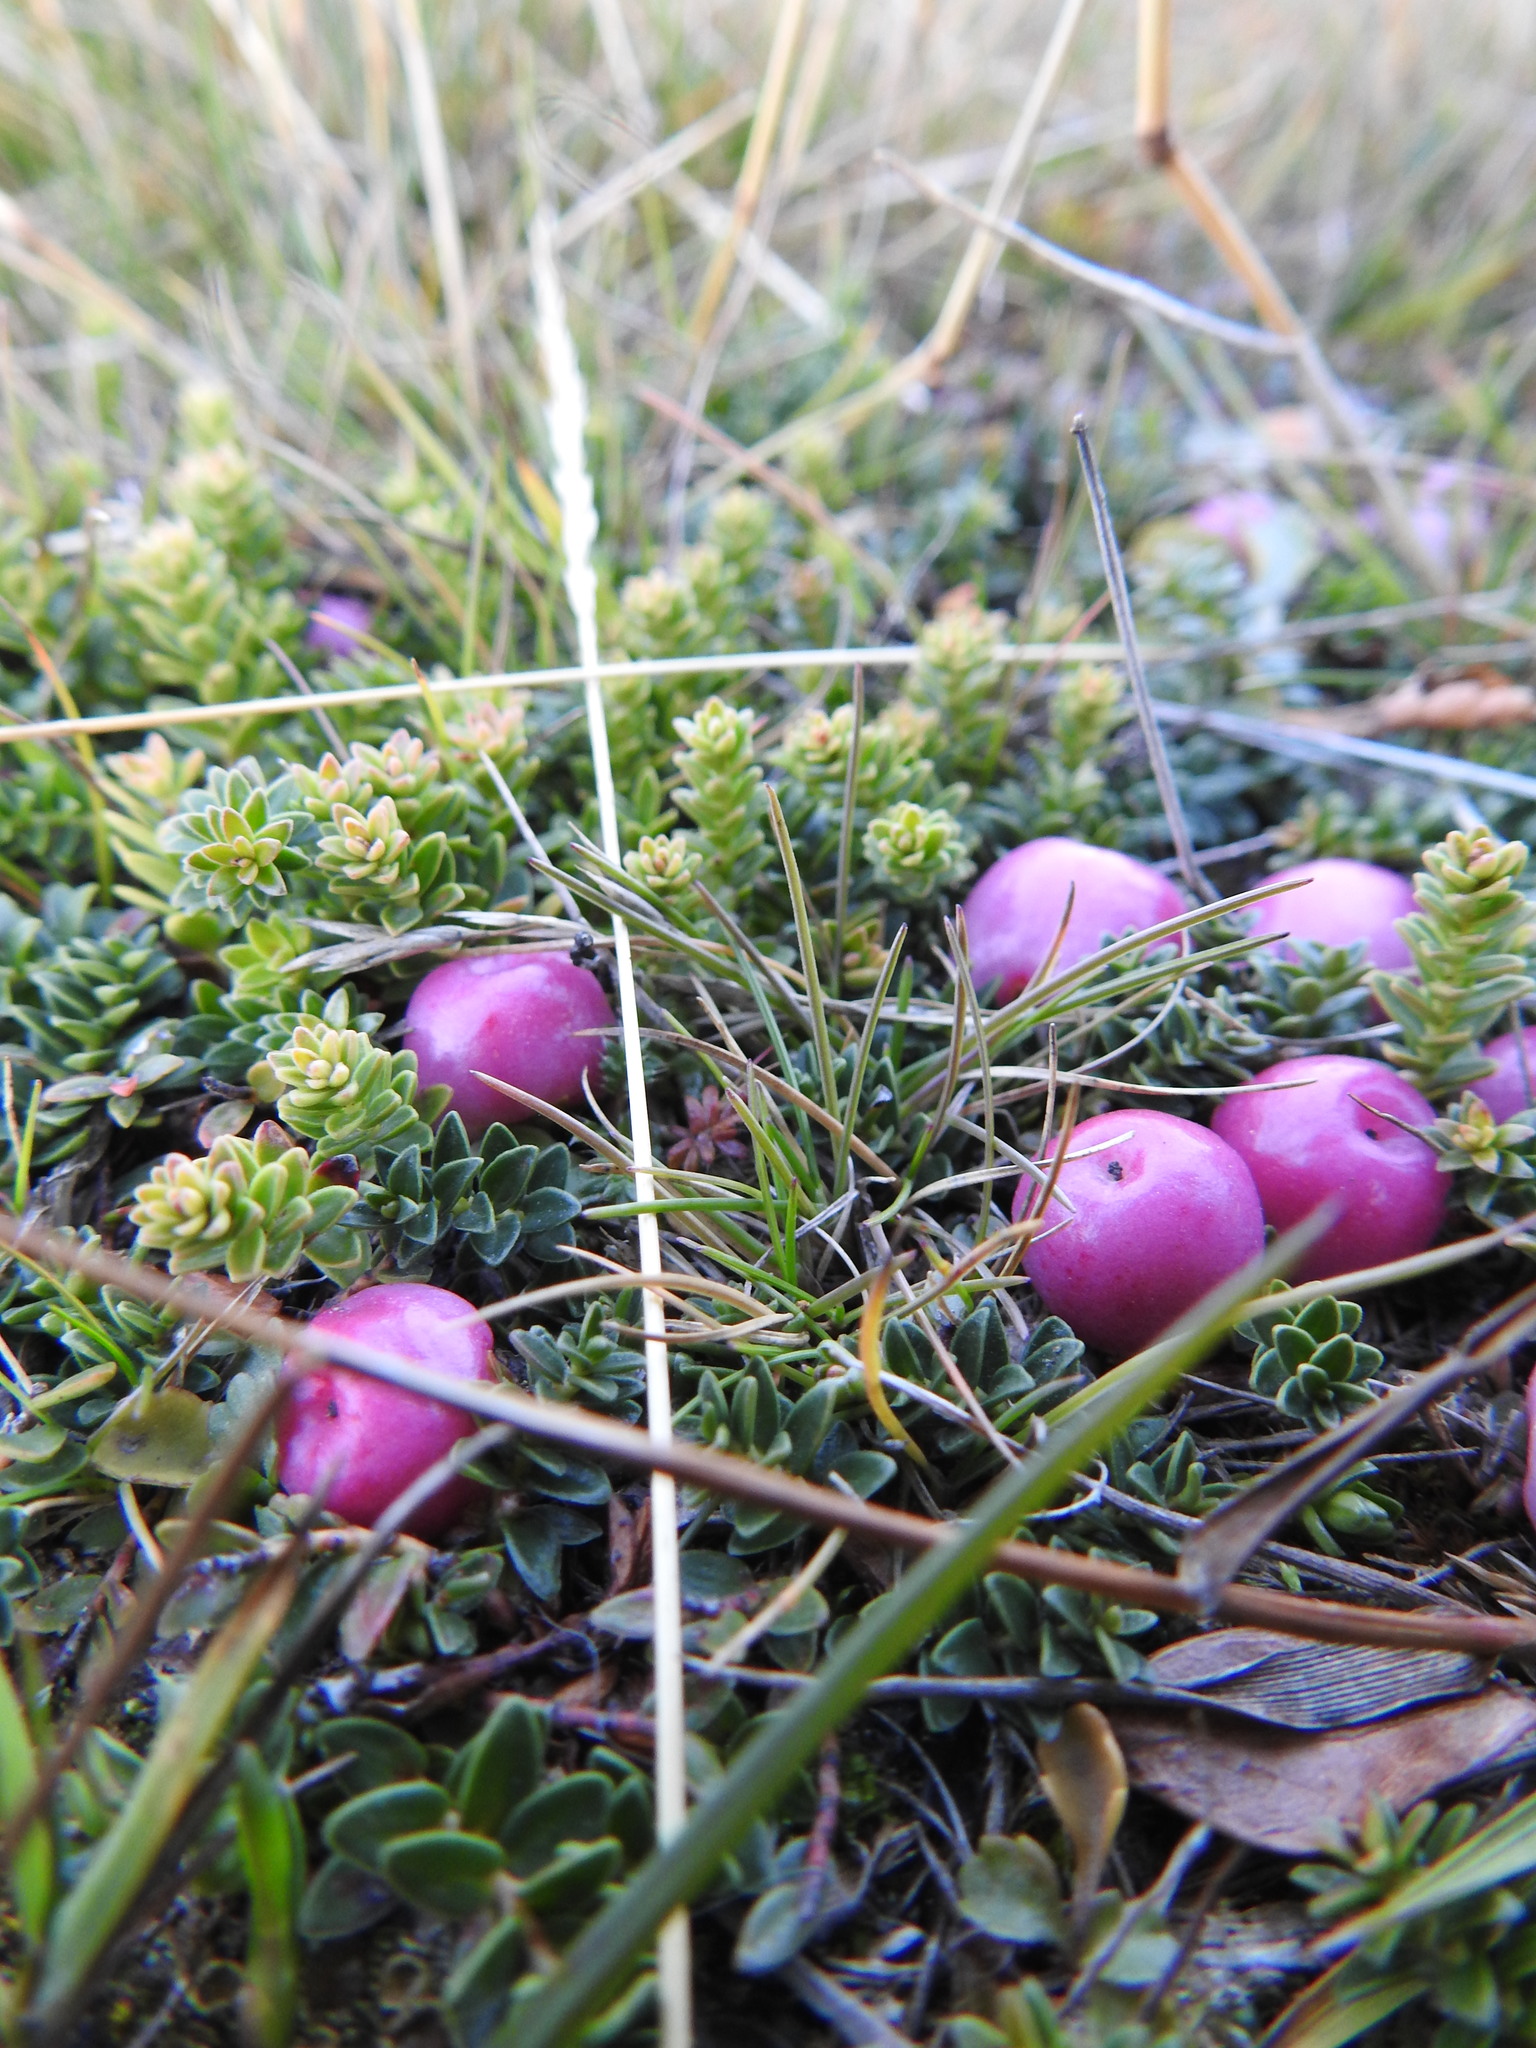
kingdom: Plantae
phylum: Tracheophyta
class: Magnoliopsida
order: Ericales
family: Ericaceae
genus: Gaultheria
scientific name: Gaultheria pumila
